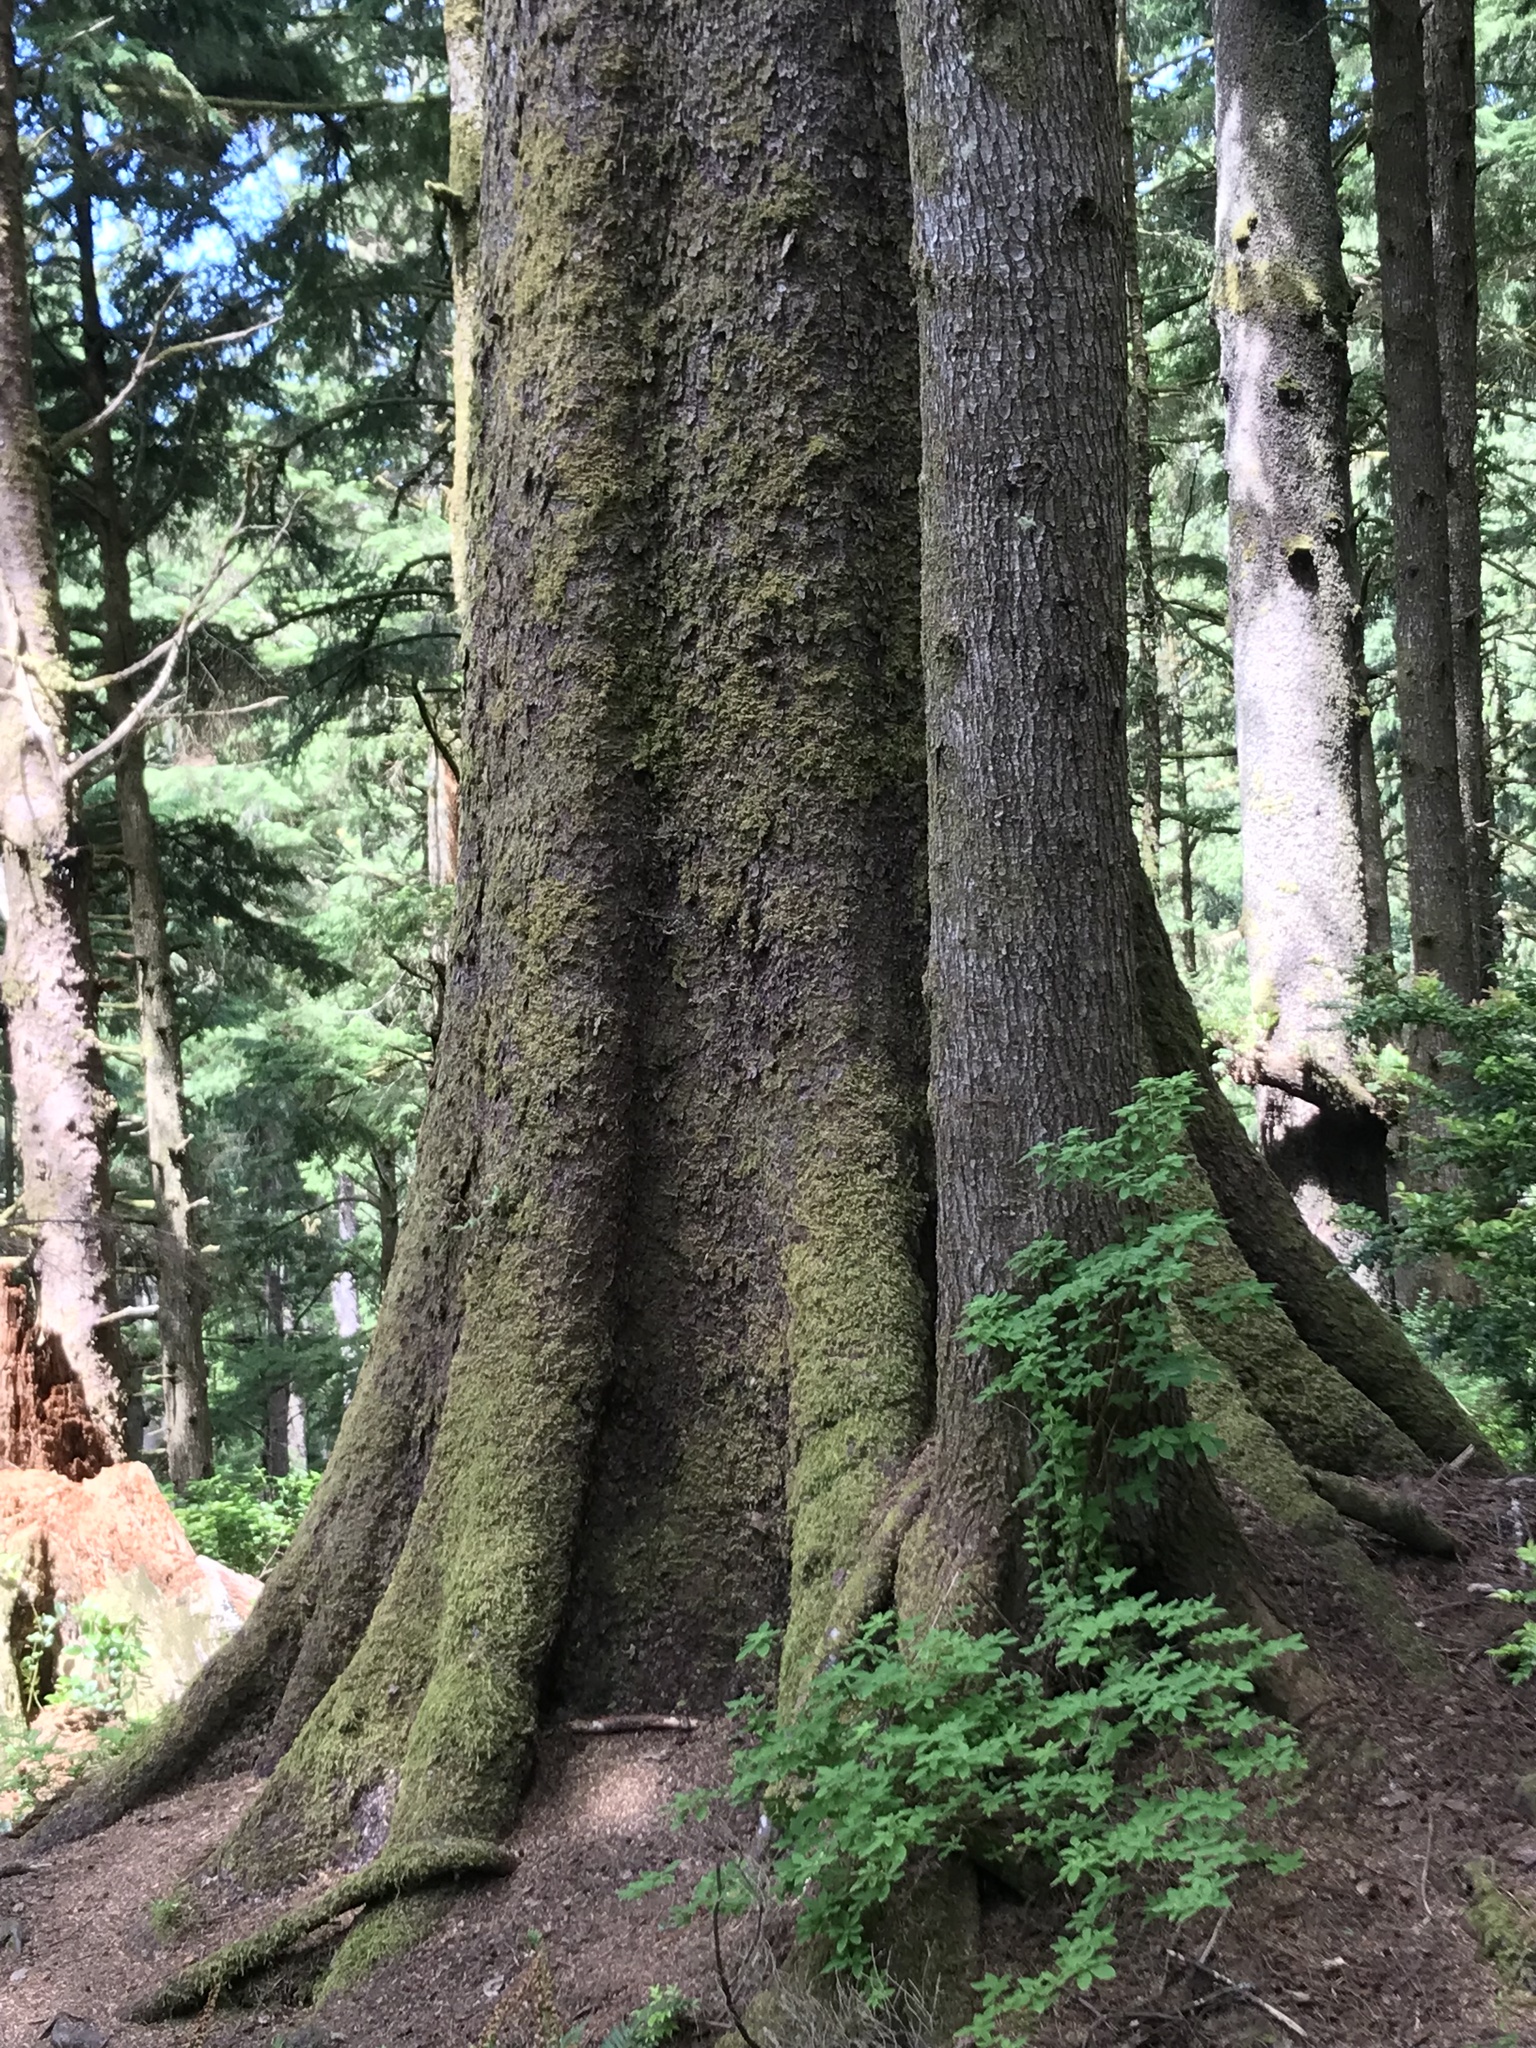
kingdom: Plantae
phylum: Tracheophyta
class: Pinopsida
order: Pinales
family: Pinaceae
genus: Picea
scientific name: Picea sitchensis
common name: Sitka spruce
